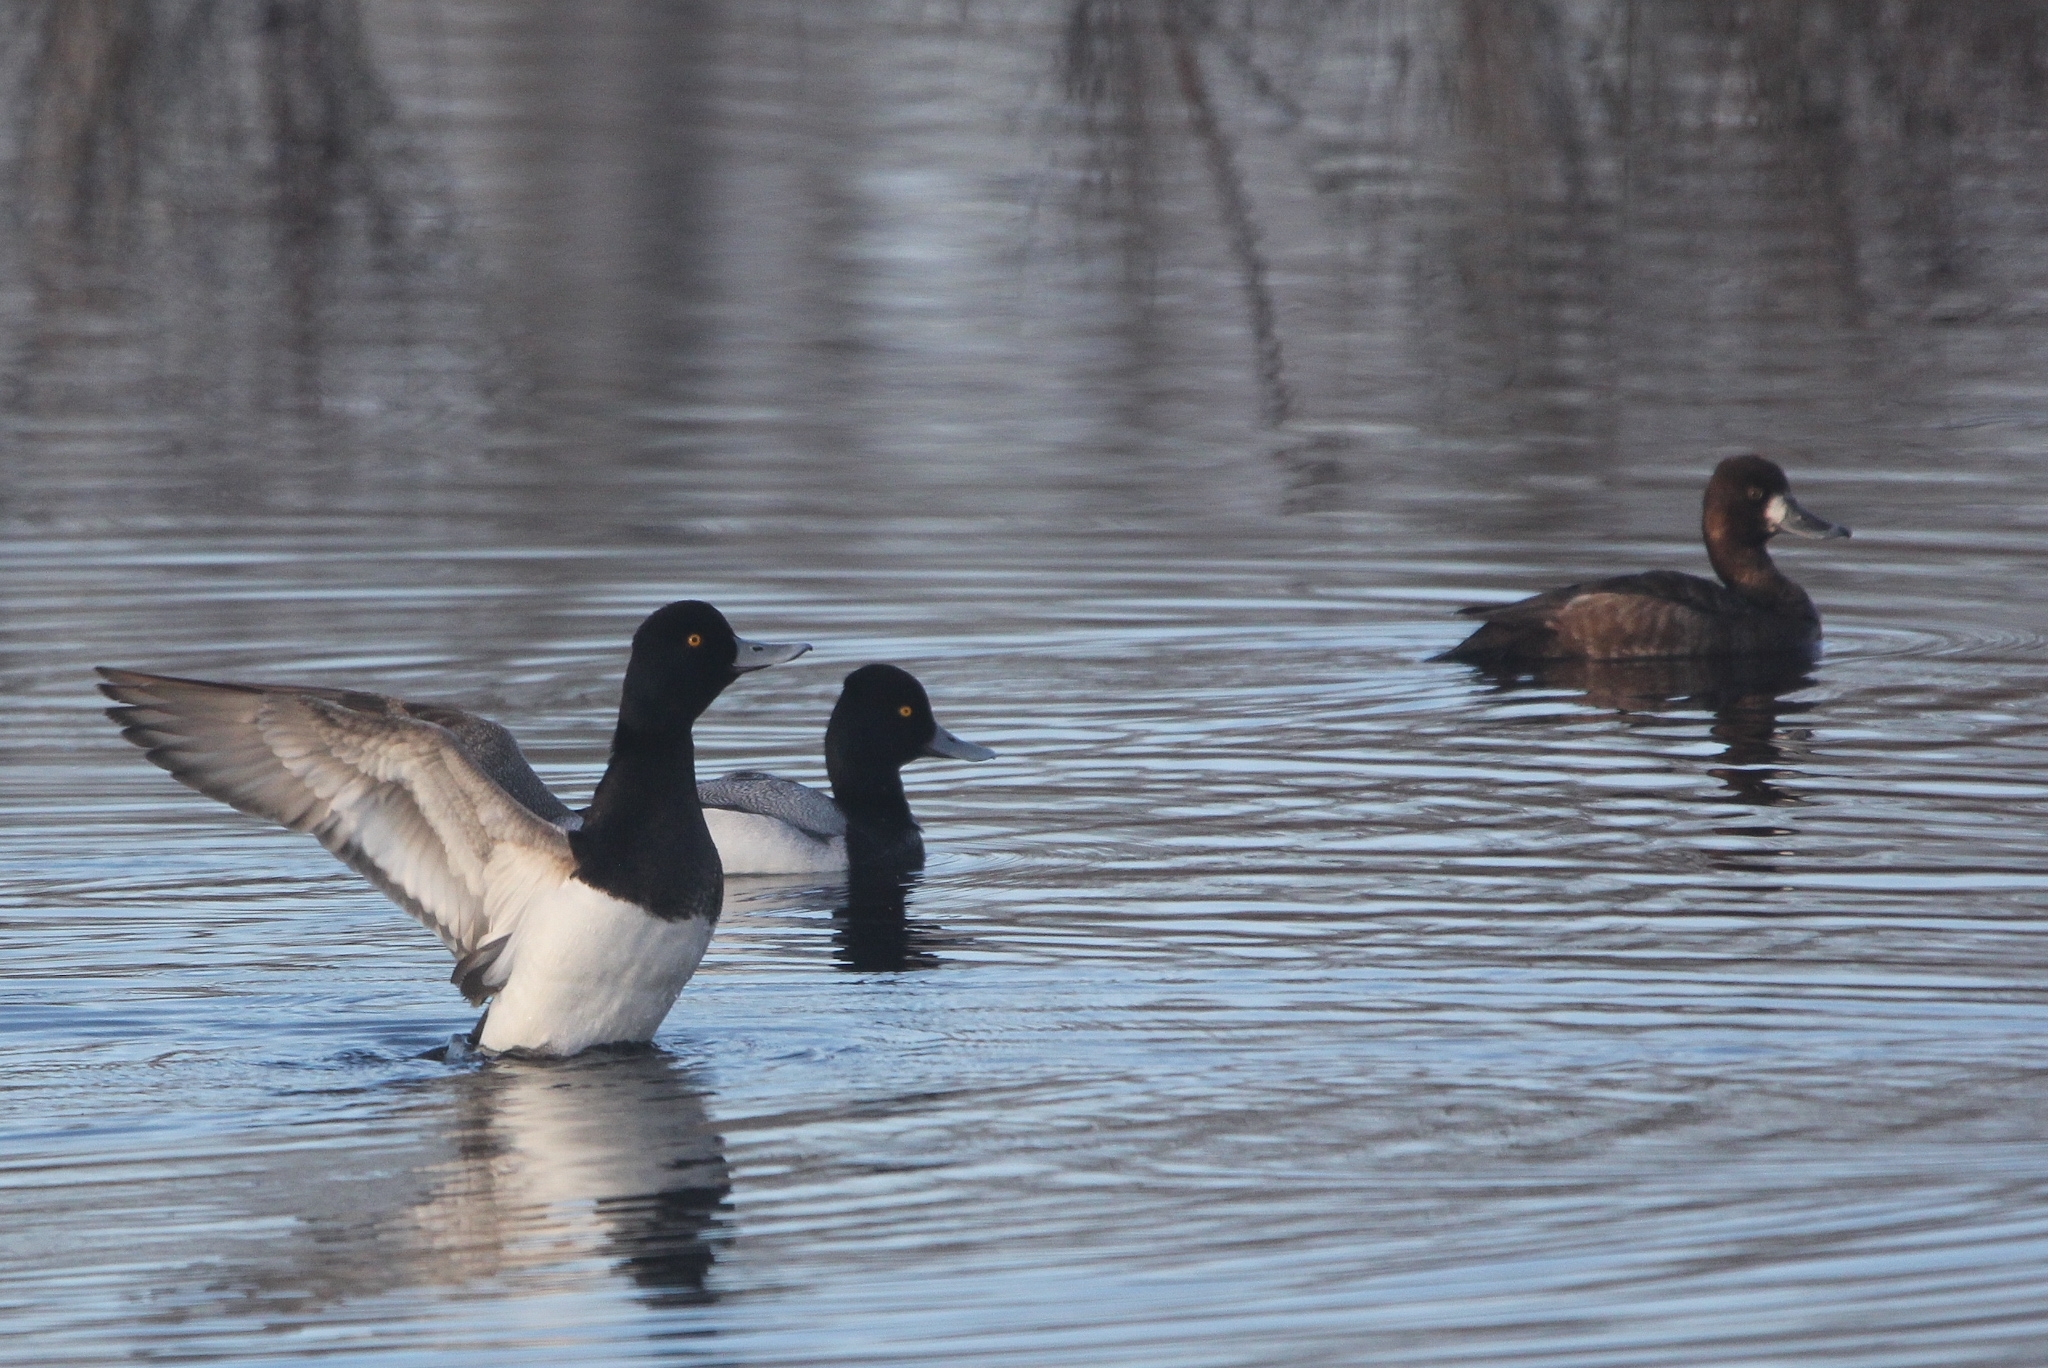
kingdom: Animalia
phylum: Chordata
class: Aves
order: Anseriformes
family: Anatidae
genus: Aythya
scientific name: Aythya affinis
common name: Lesser scaup
